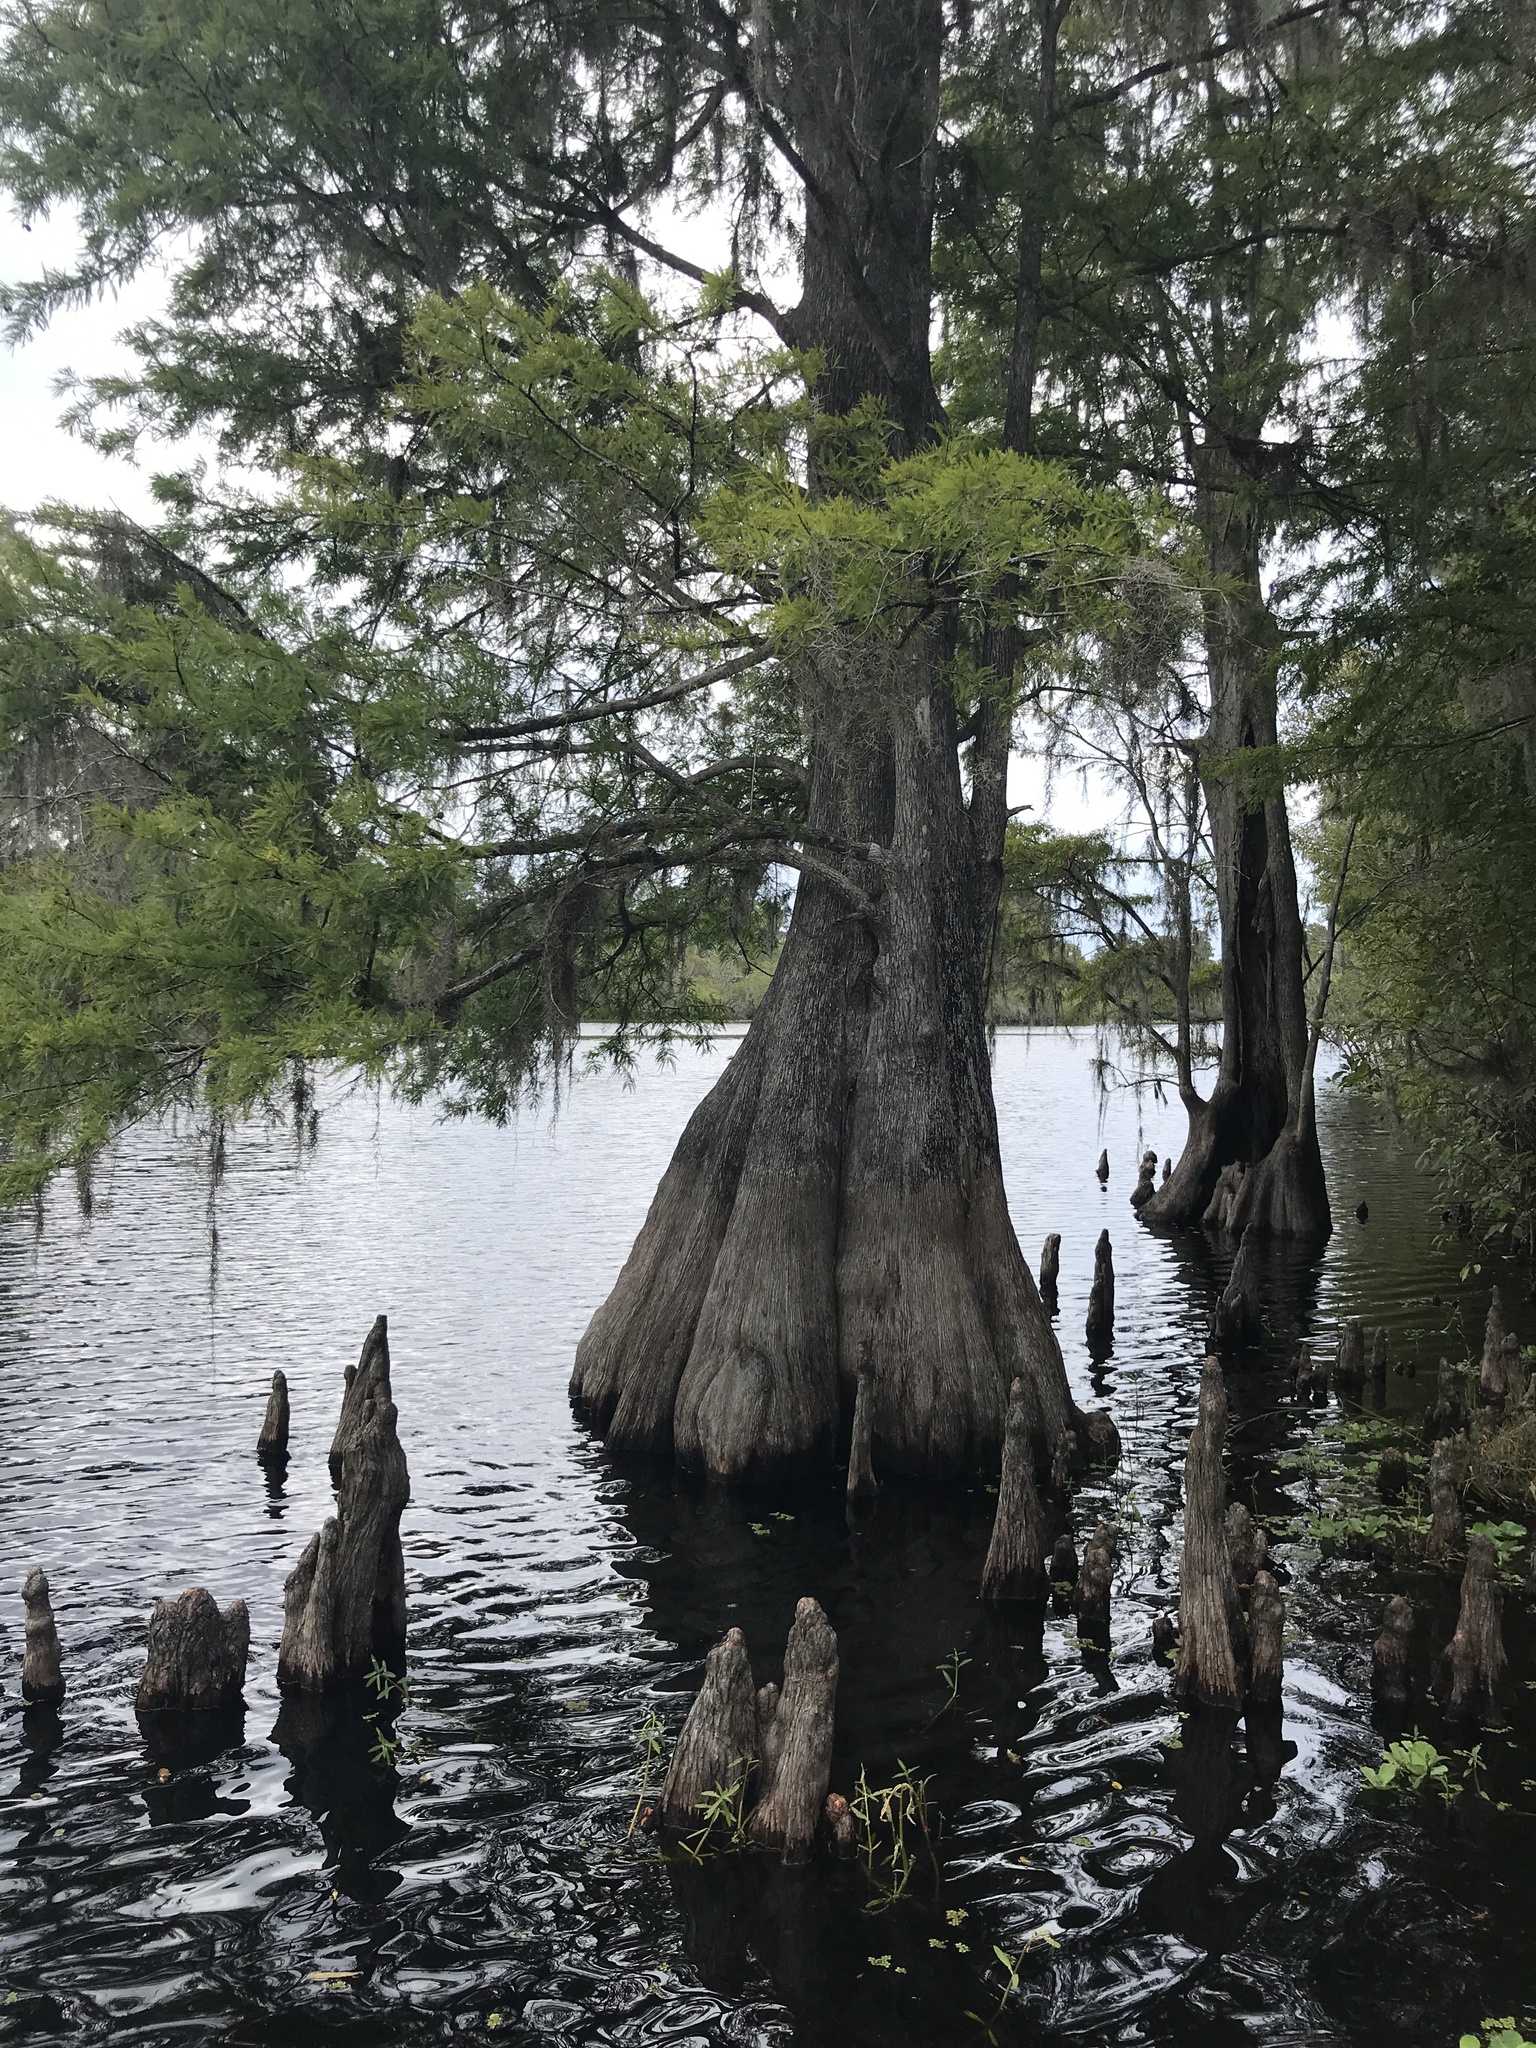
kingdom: Plantae
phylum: Tracheophyta
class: Pinopsida
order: Pinales
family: Cupressaceae
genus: Taxodium
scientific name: Taxodium distichum
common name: Bald cypress
